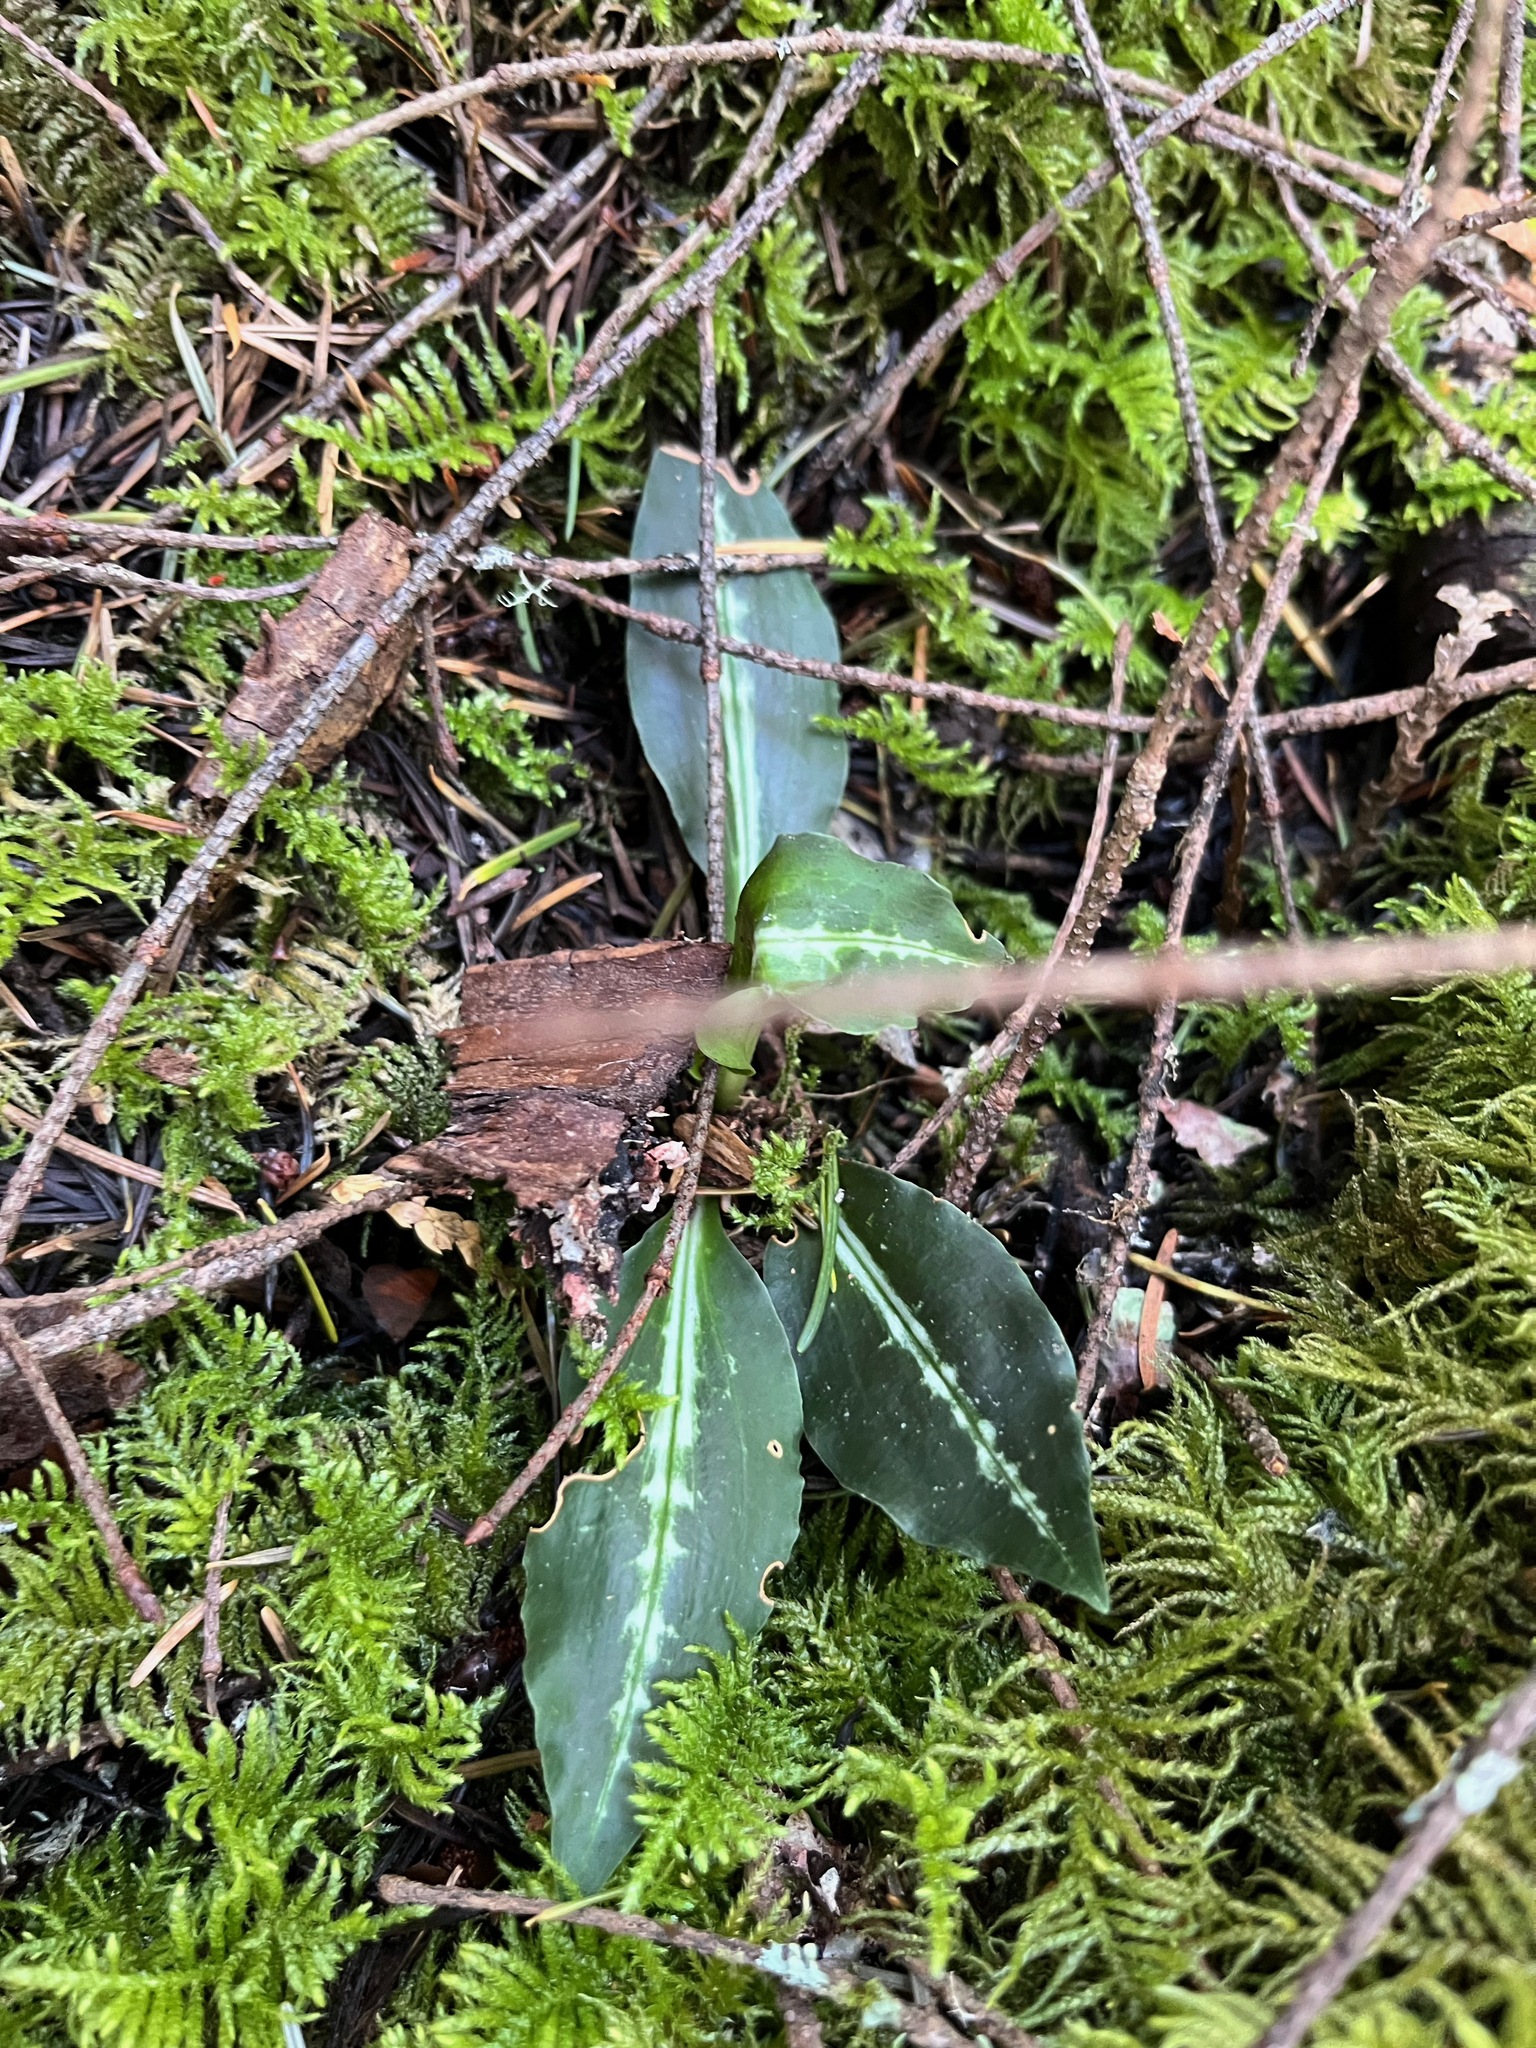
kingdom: Plantae
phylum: Tracheophyta
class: Liliopsida
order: Asparagales
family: Orchidaceae
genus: Goodyera
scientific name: Goodyera oblongifolia
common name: Giant rattlesnake-plantain
